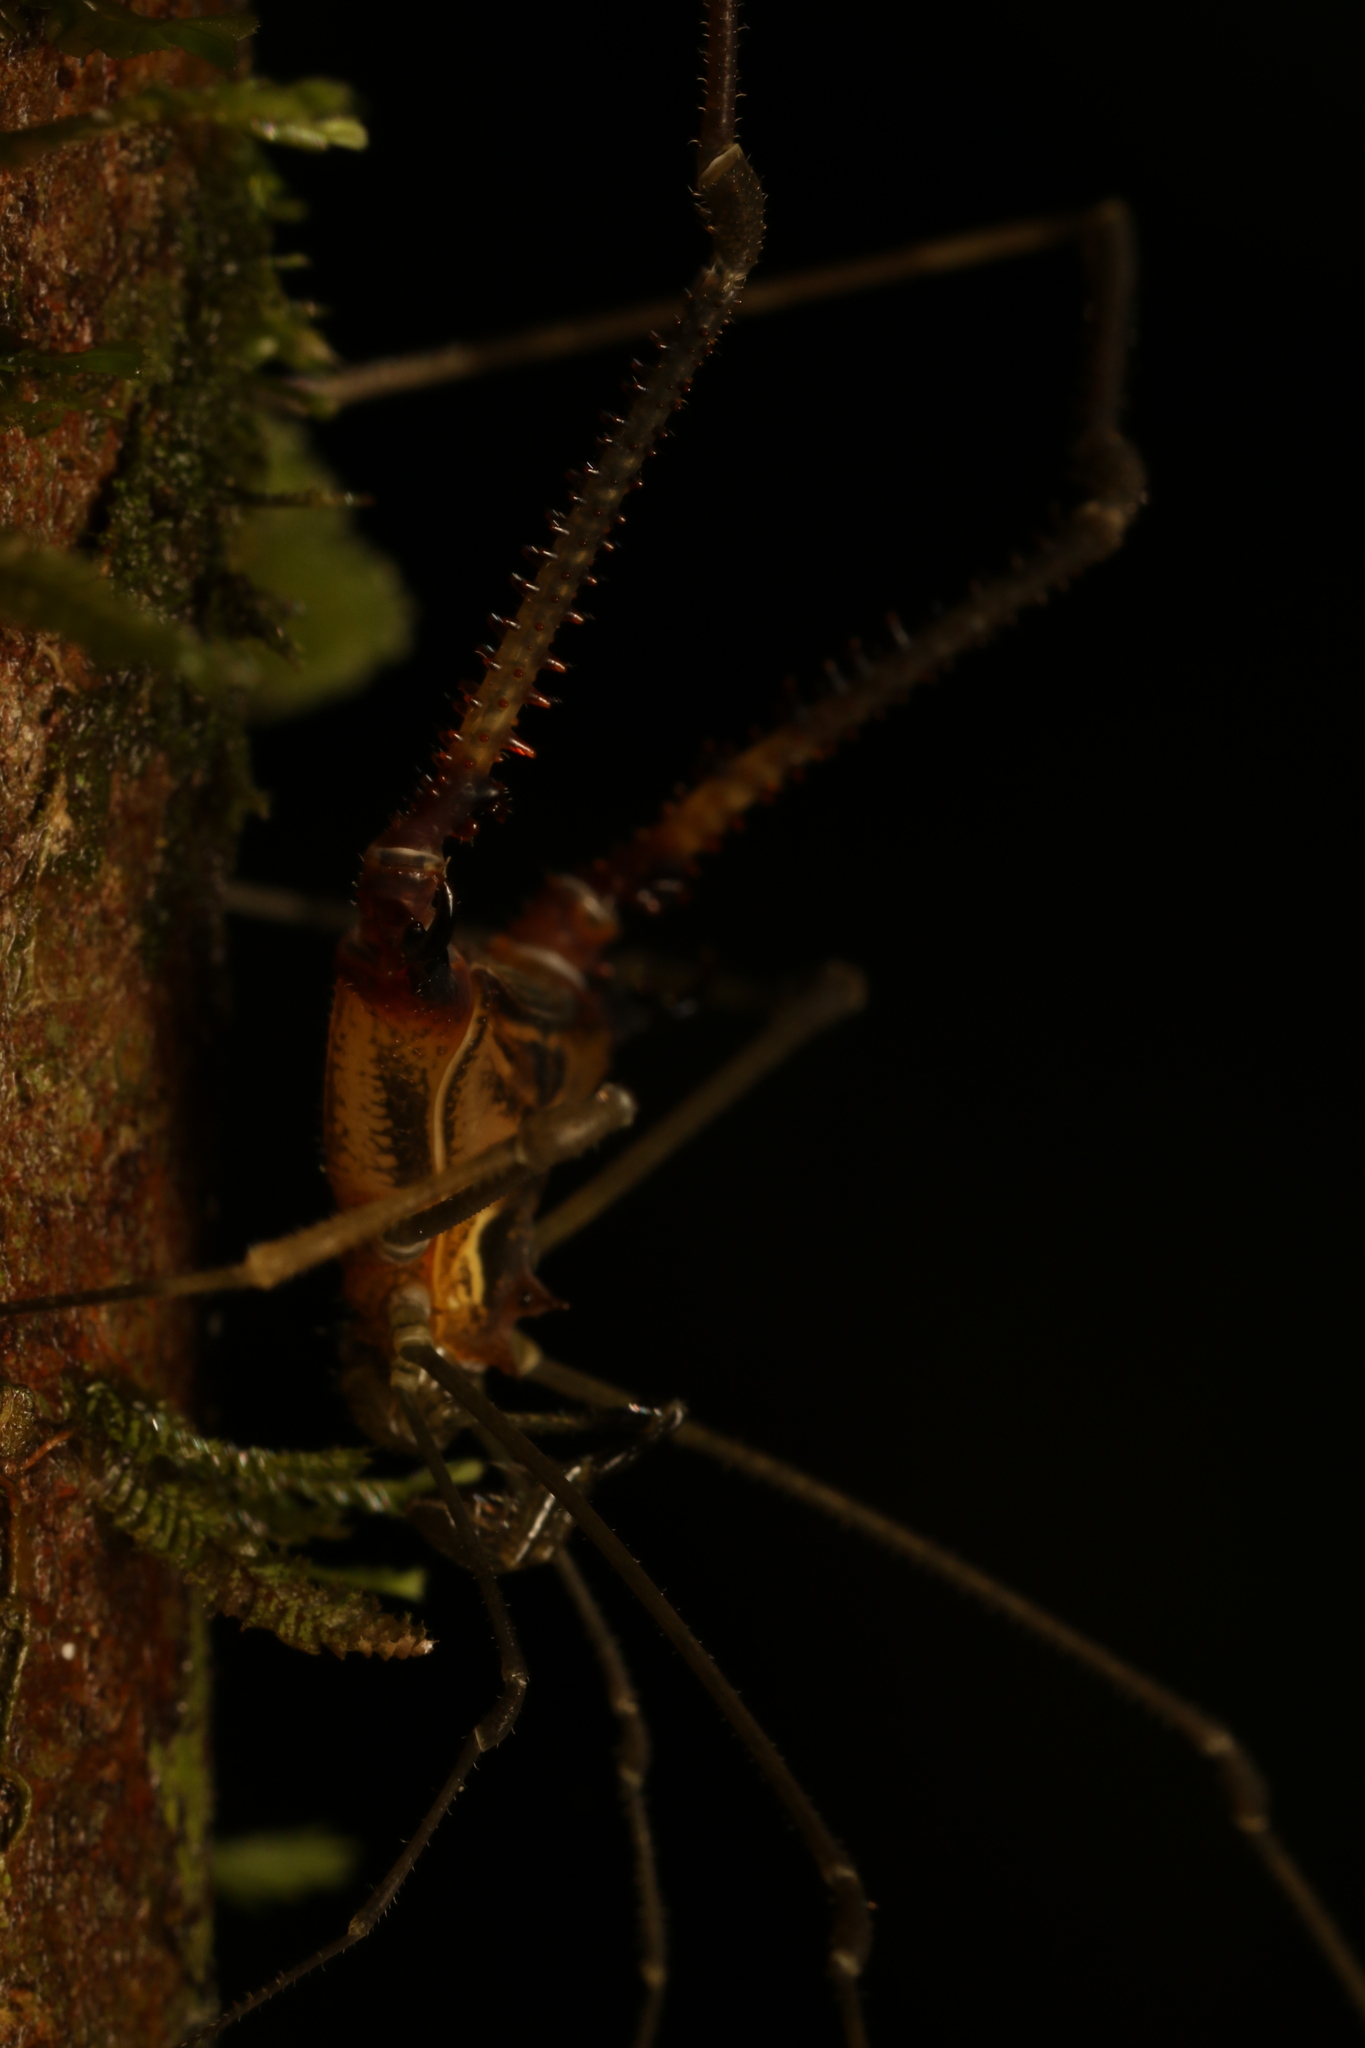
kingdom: Animalia
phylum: Arthropoda
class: Arachnida
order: Opiliones
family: Gonyleptidae
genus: Progonyleptoidellus
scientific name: Progonyleptoidellus striatus
